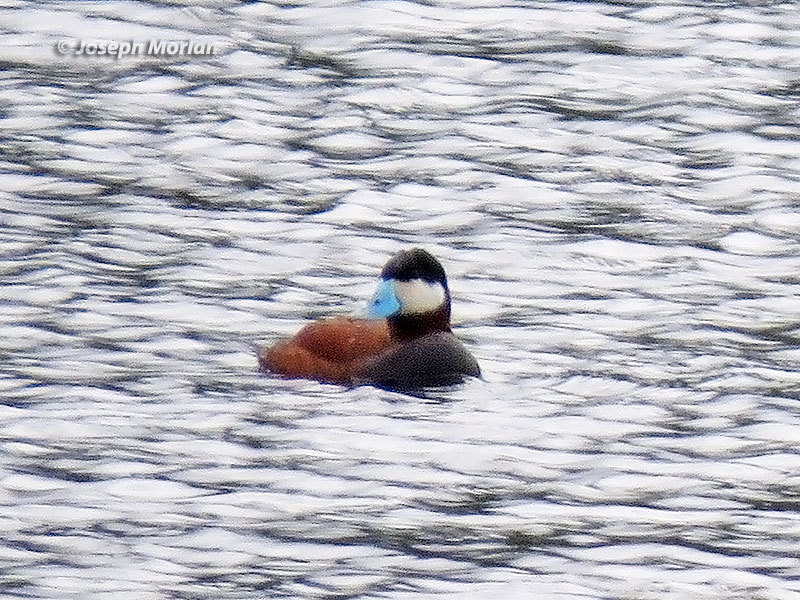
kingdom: Animalia
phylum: Chordata
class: Aves
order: Anseriformes
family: Anatidae
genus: Oxyura
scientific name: Oxyura jamaicensis
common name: Ruddy duck
